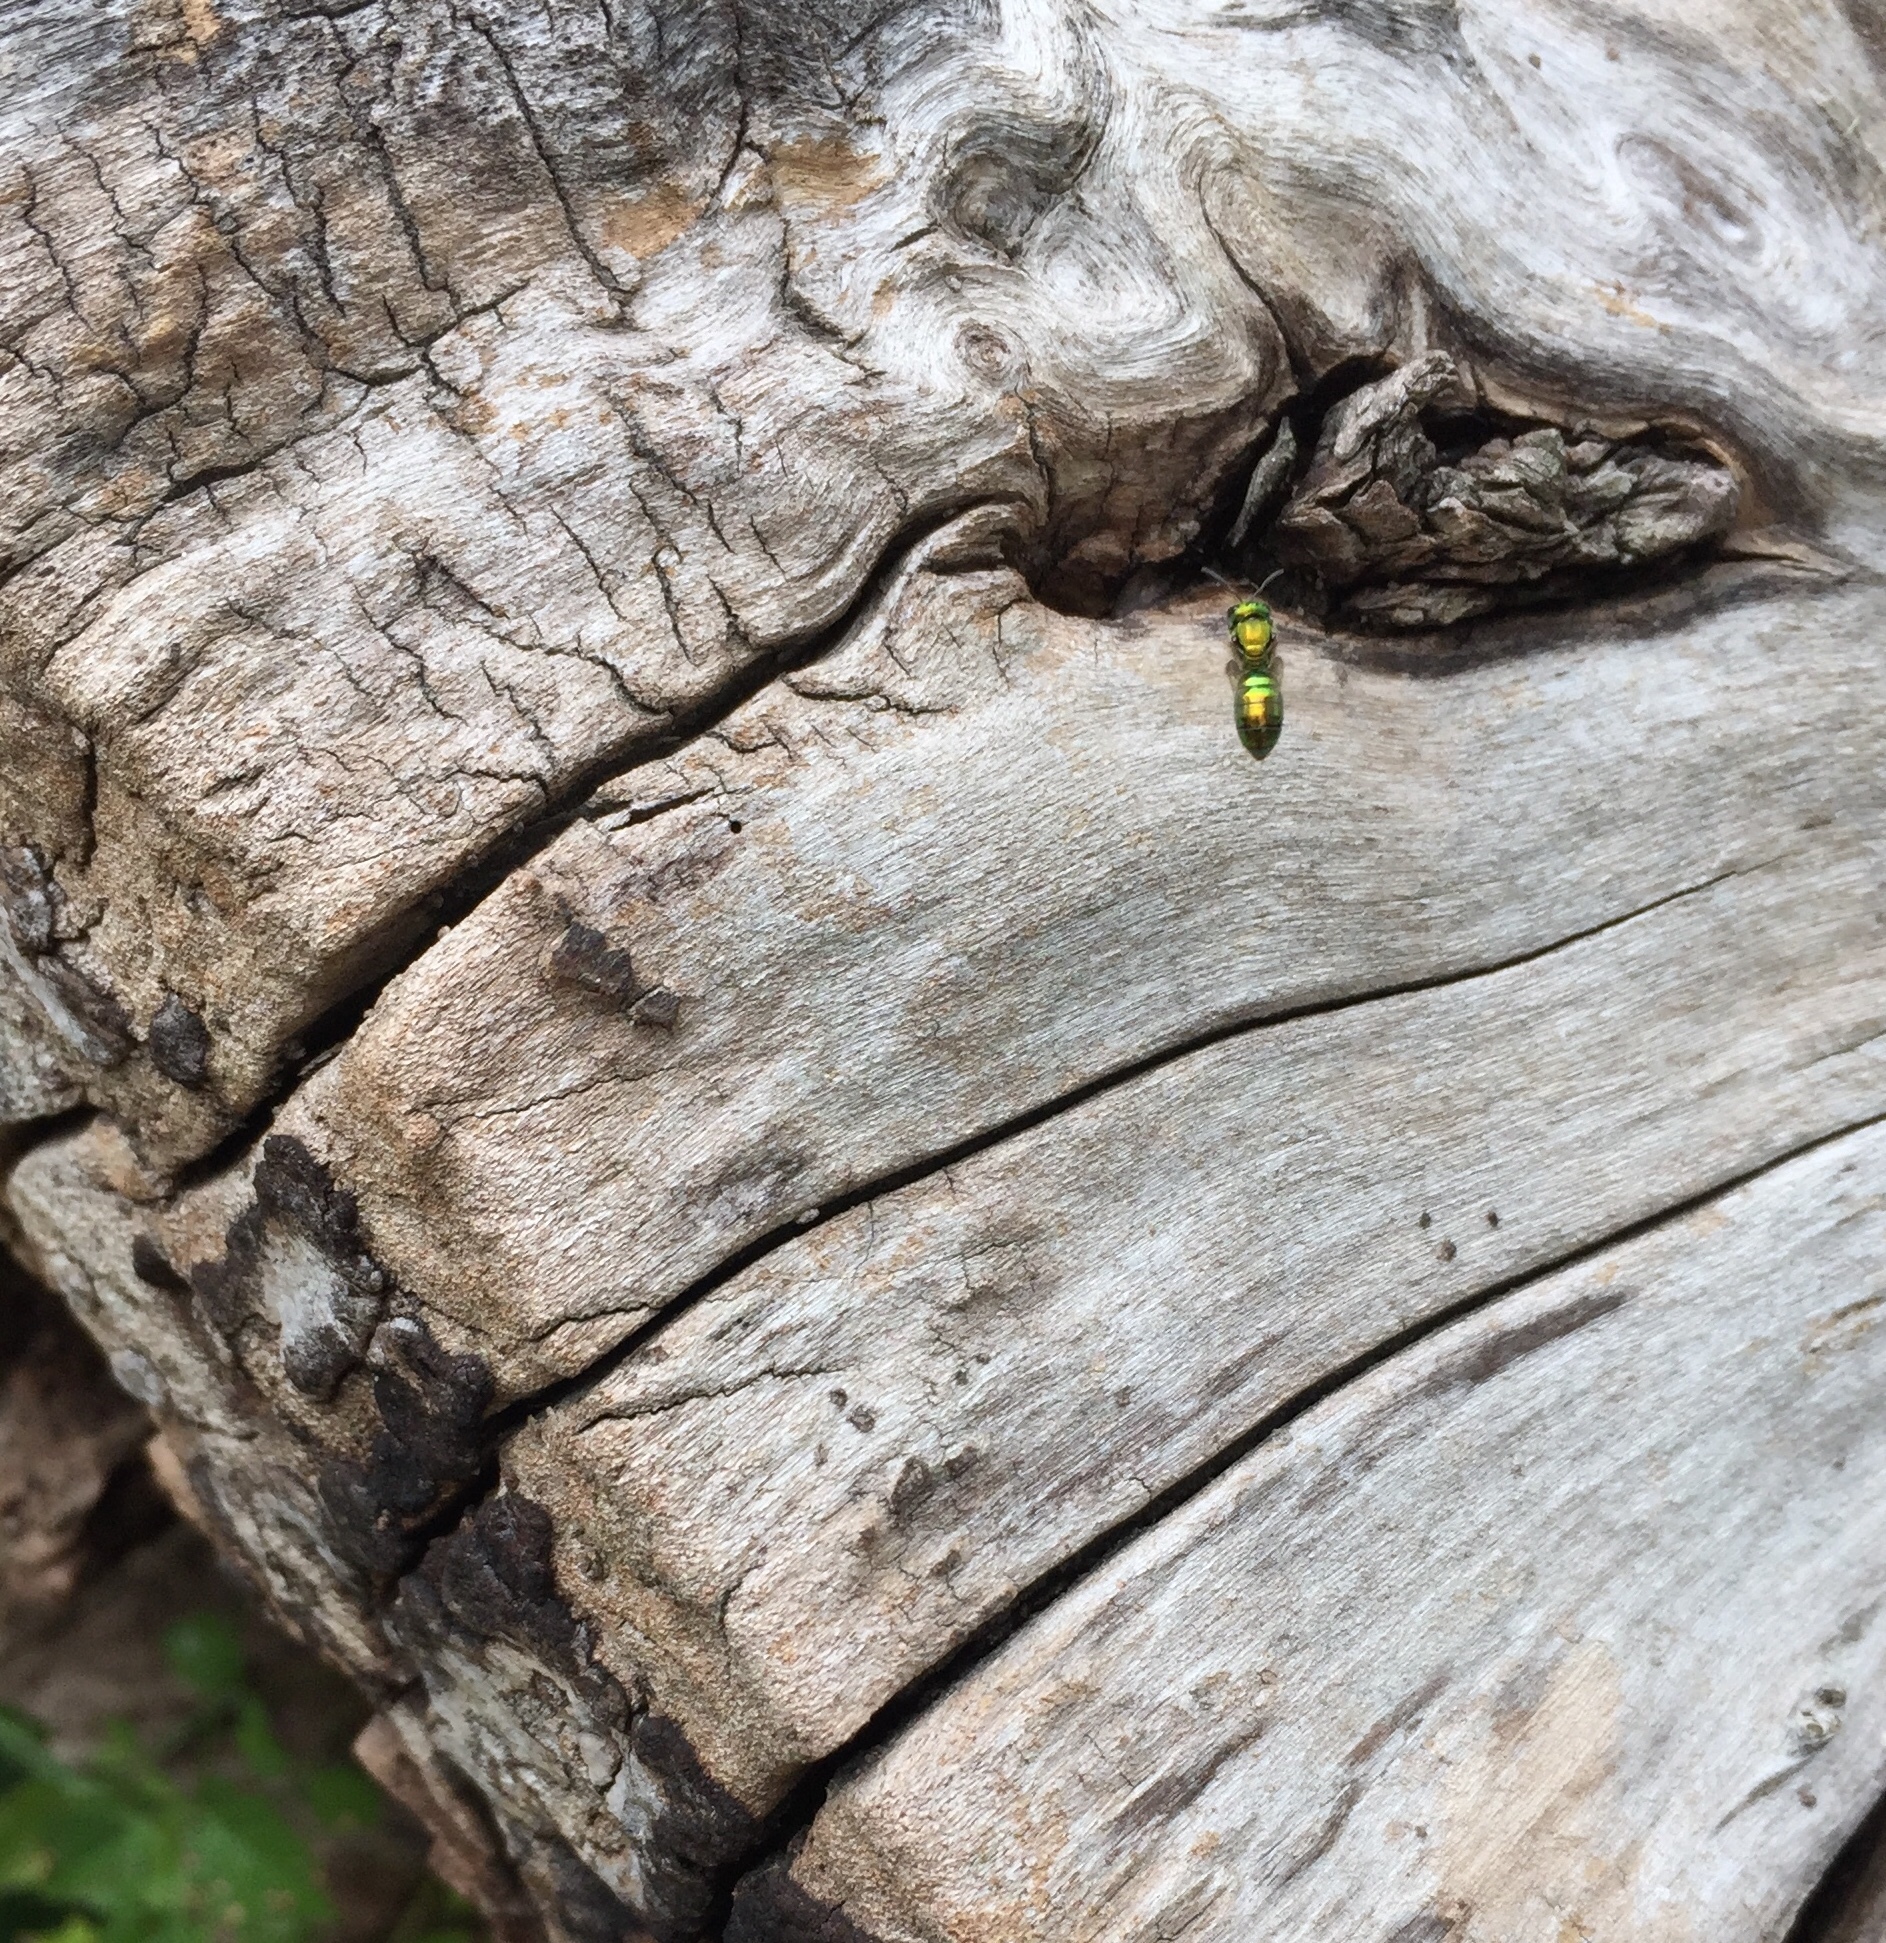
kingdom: Animalia
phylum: Arthropoda
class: Insecta
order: Hymenoptera
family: Halictidae
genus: Augochlora
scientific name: Augochlora pura
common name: Pure green sweat bee
